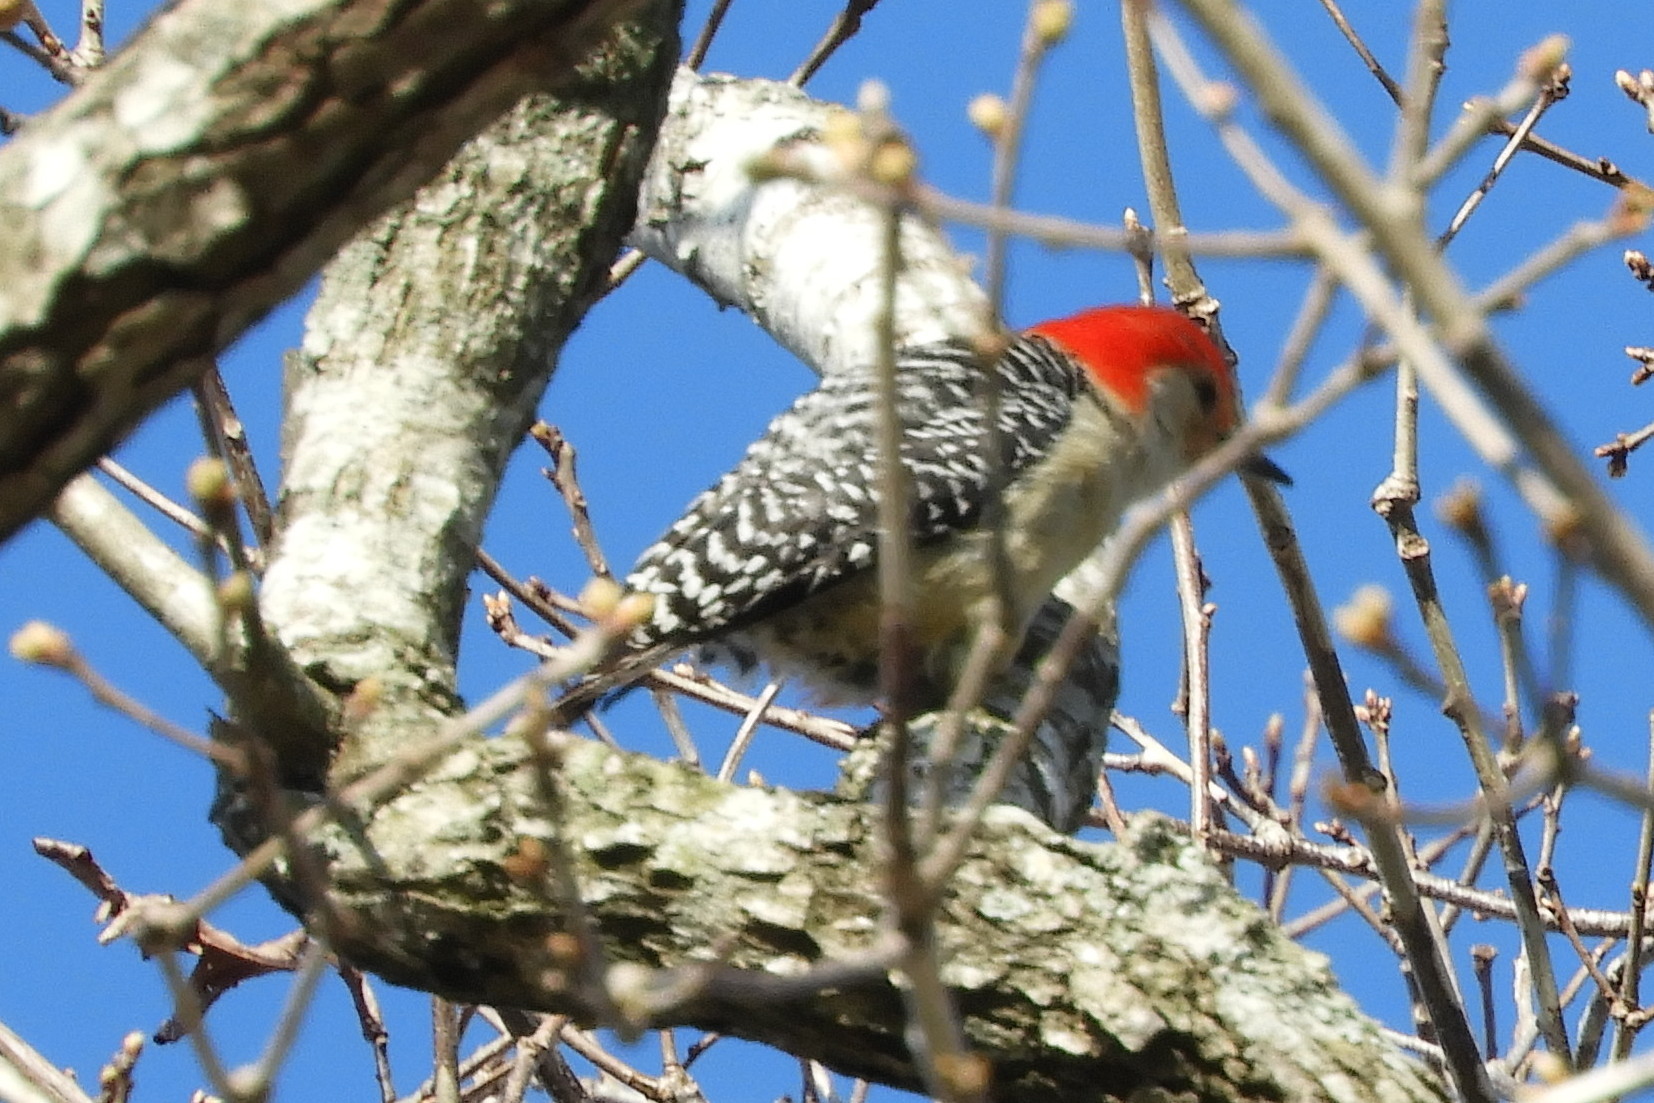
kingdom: Animalia
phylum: Chordata
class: Aves
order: Piciformes
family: Picidae
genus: Melanerpes
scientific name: Melanerpes carolinus
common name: Red-bellied woodpecker
